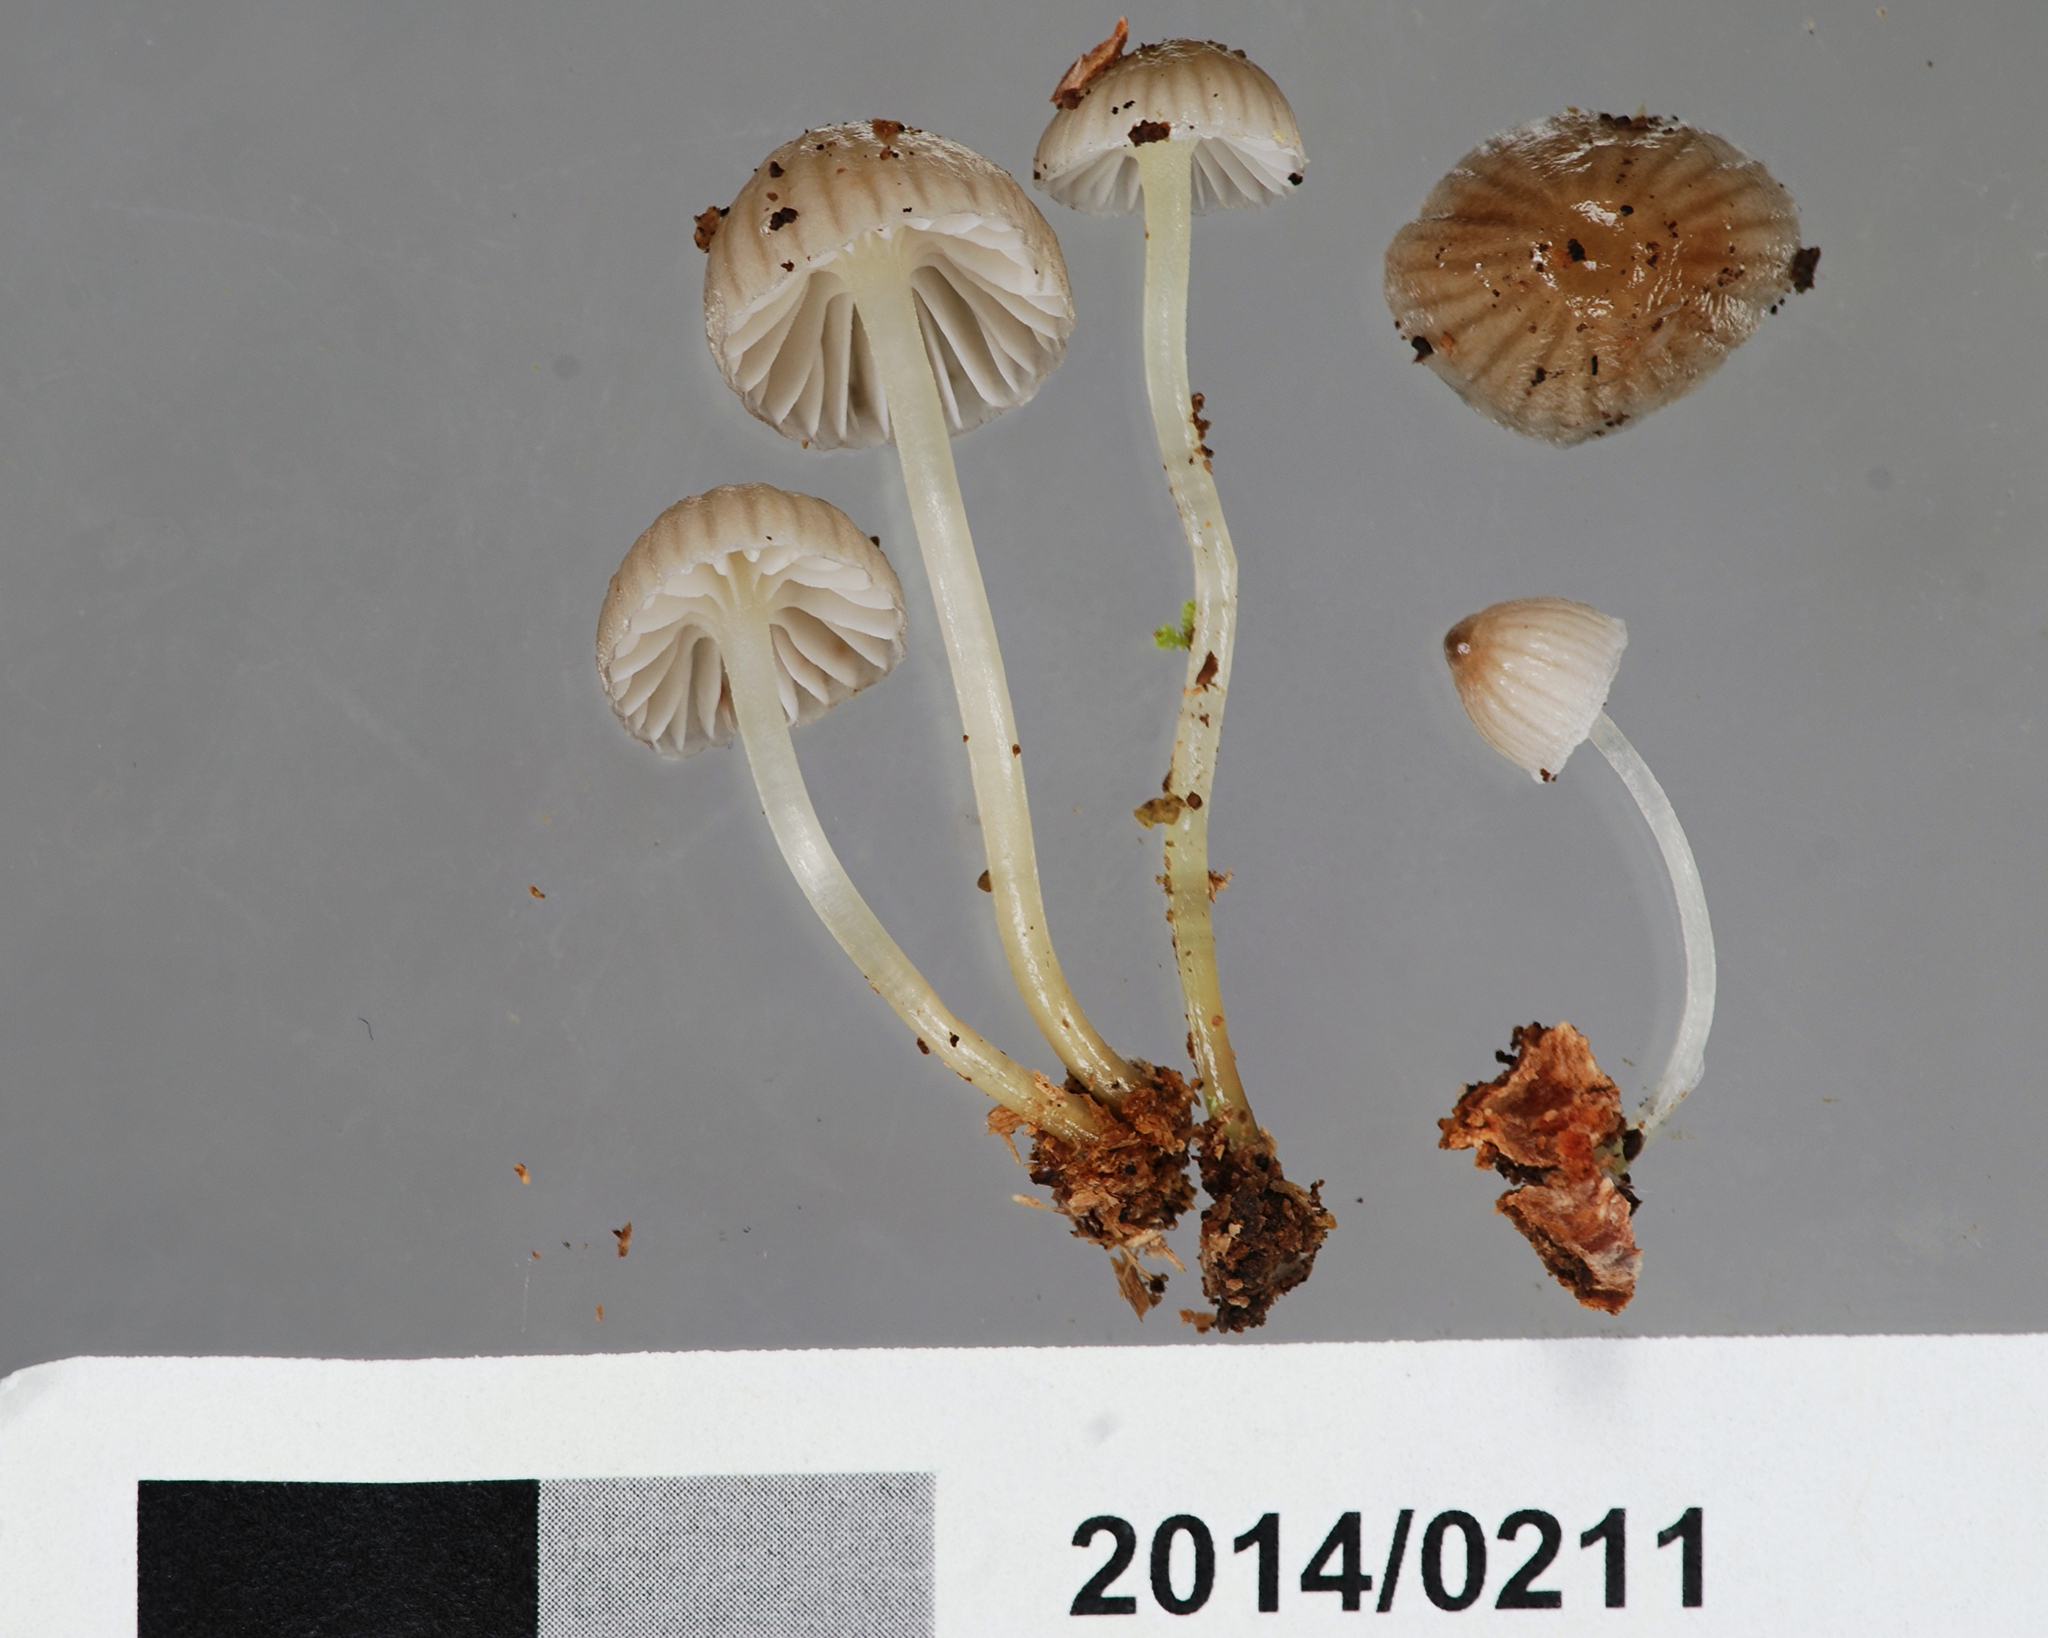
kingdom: Fungi
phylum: Basidiomycota
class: Agaricomycetes
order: Agaricales
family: Mycenaceae
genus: Mycena
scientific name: Mycena subviscosa
